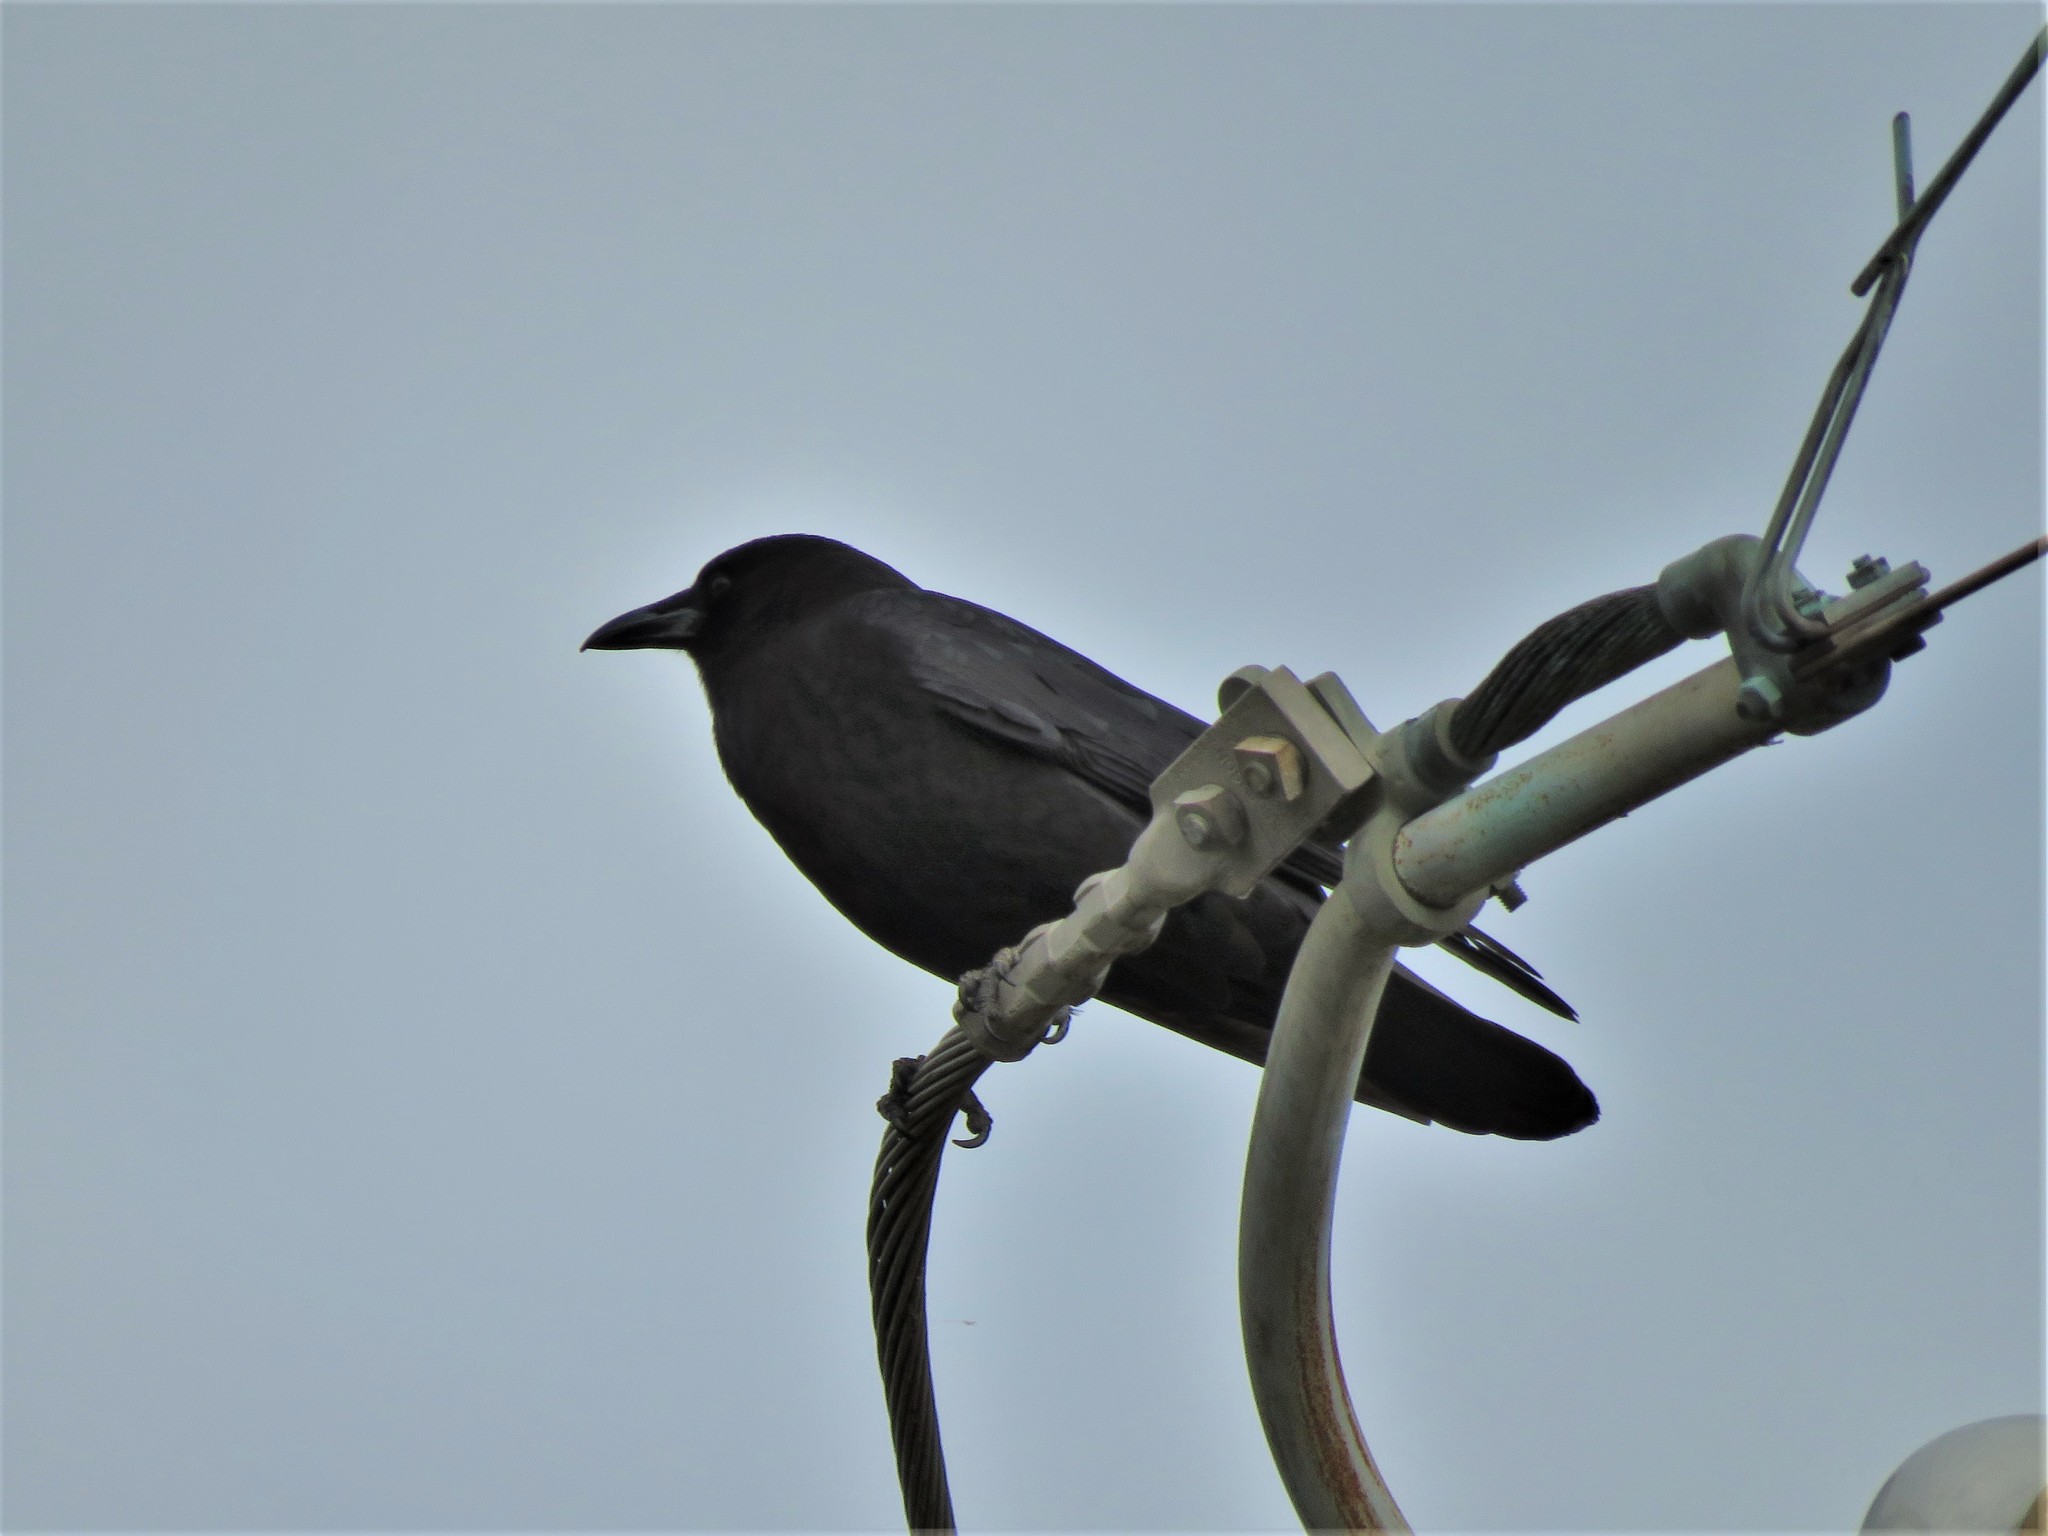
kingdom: Animalia
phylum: Chordata
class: Aves
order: Passeriformes
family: Corvidae
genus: Corvus
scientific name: Corvus brachyrhynchos
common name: American crow
